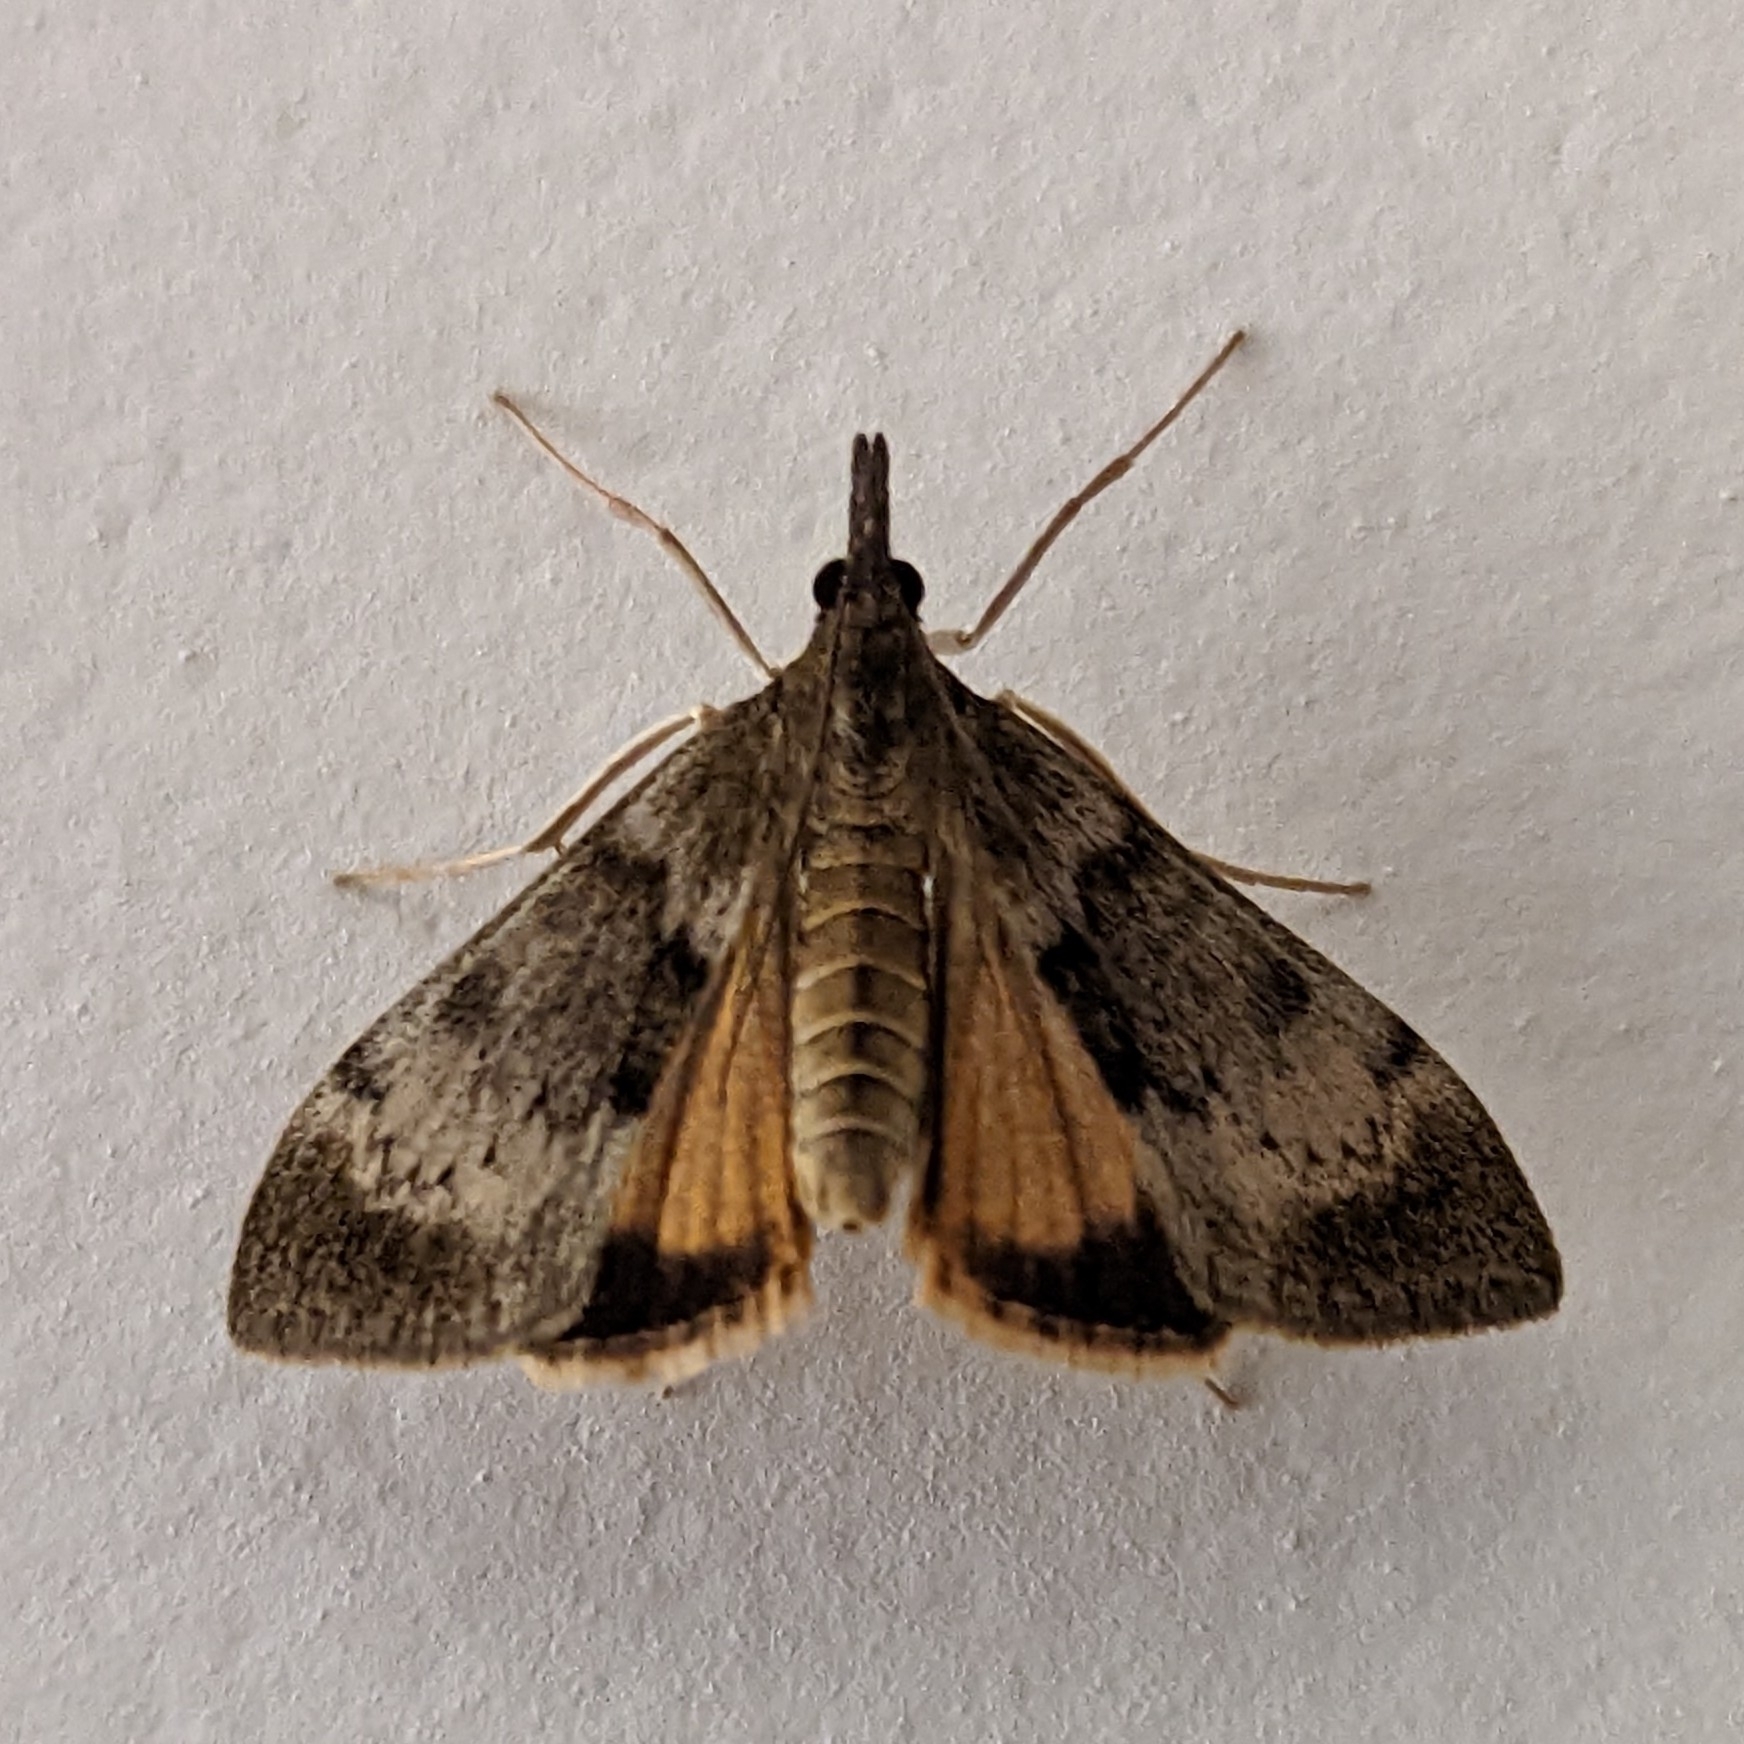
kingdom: Animalia
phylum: Arthropoda
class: Insecta
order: Lepidoptera
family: Crambidae
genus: Uresiphita
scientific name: Uresiphita
